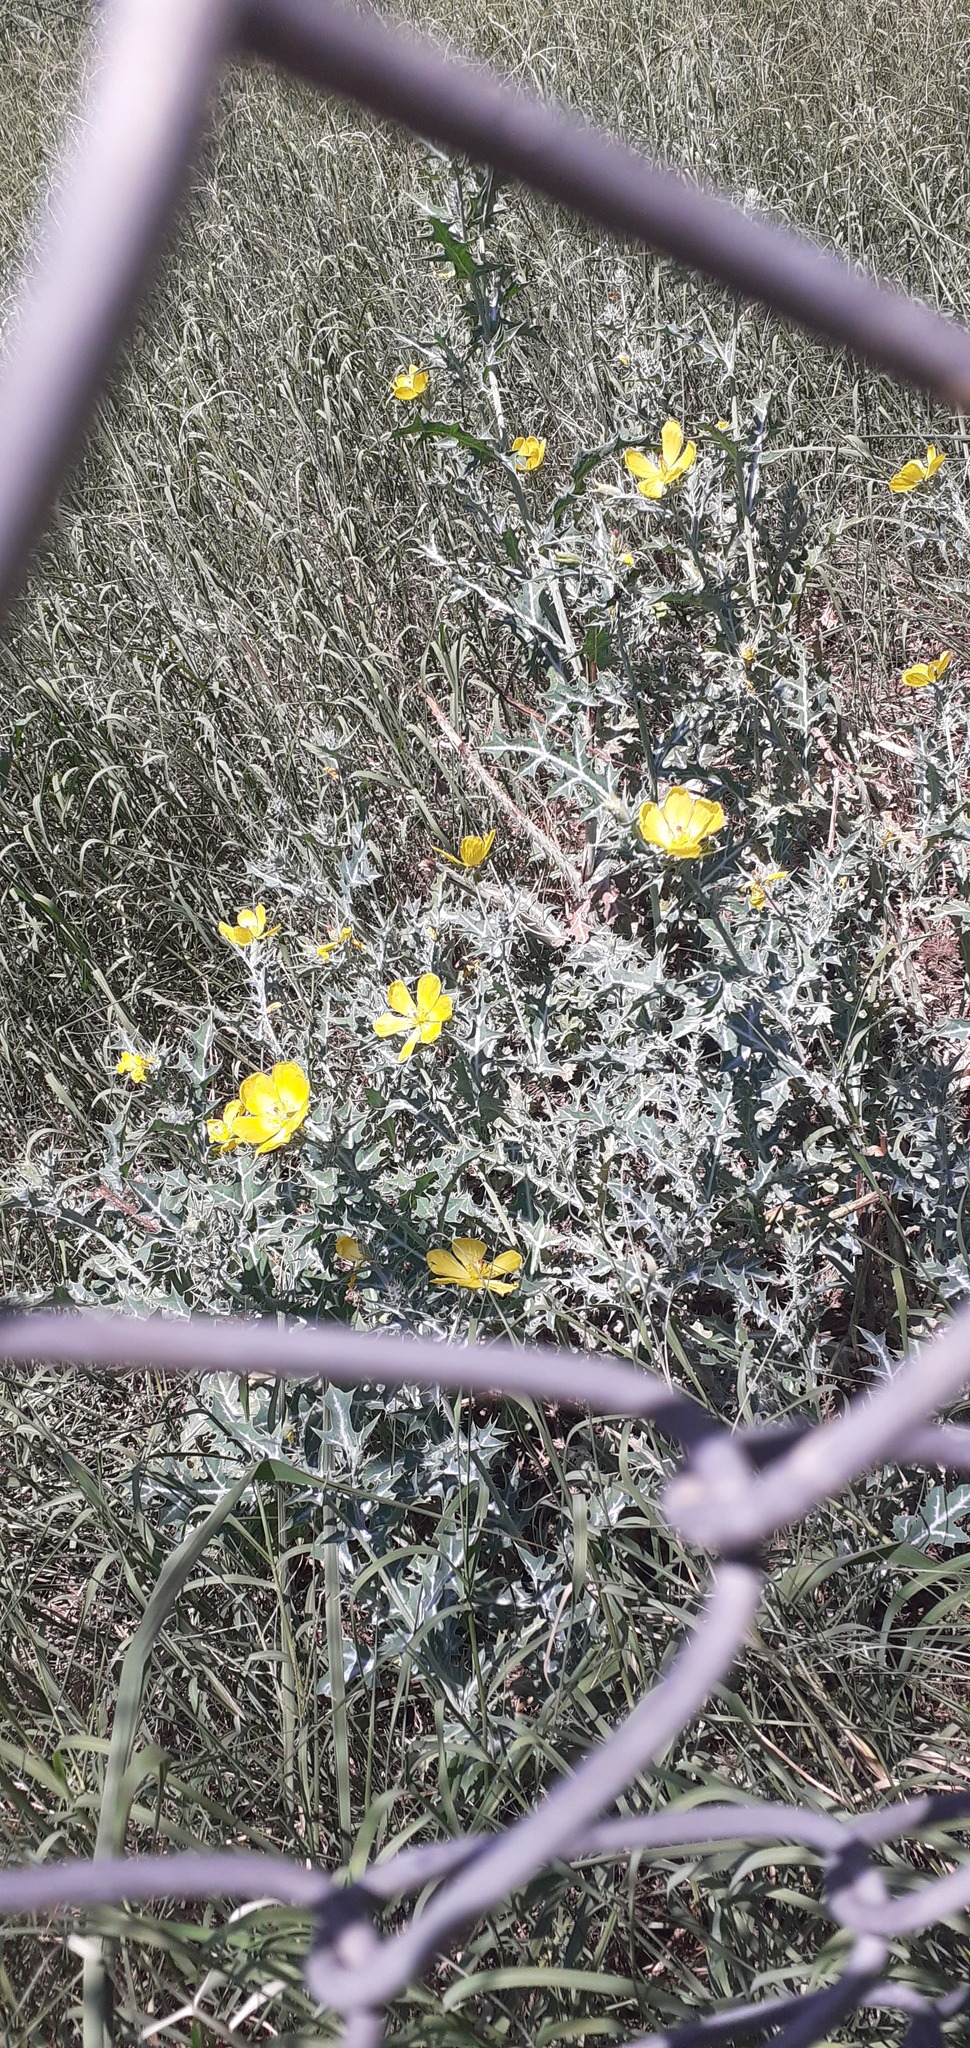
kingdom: Plantae
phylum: Tracheophyta
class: Magnoliopsida
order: Ranunculales
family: Papaveraceae
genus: Argemone
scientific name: Argemone mexicana
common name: Mexican poppy
